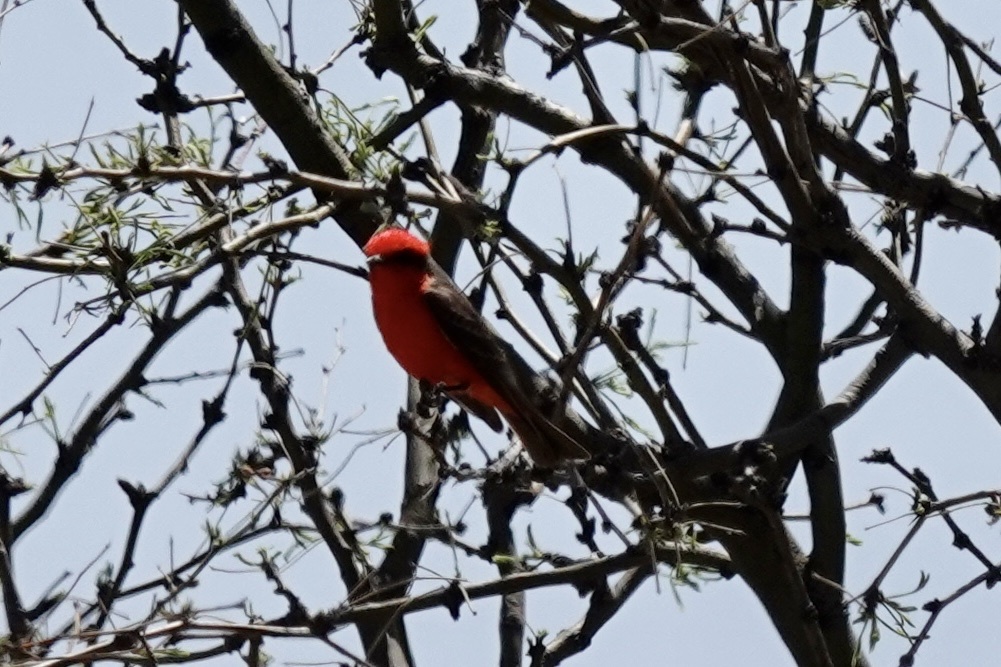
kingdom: Animalia
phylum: Chordata
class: Aves
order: Passeriformes
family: Tyrannidae
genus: Pyrocephalus
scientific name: Pyrocephalus rubinus
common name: Vermilion flycatcher
